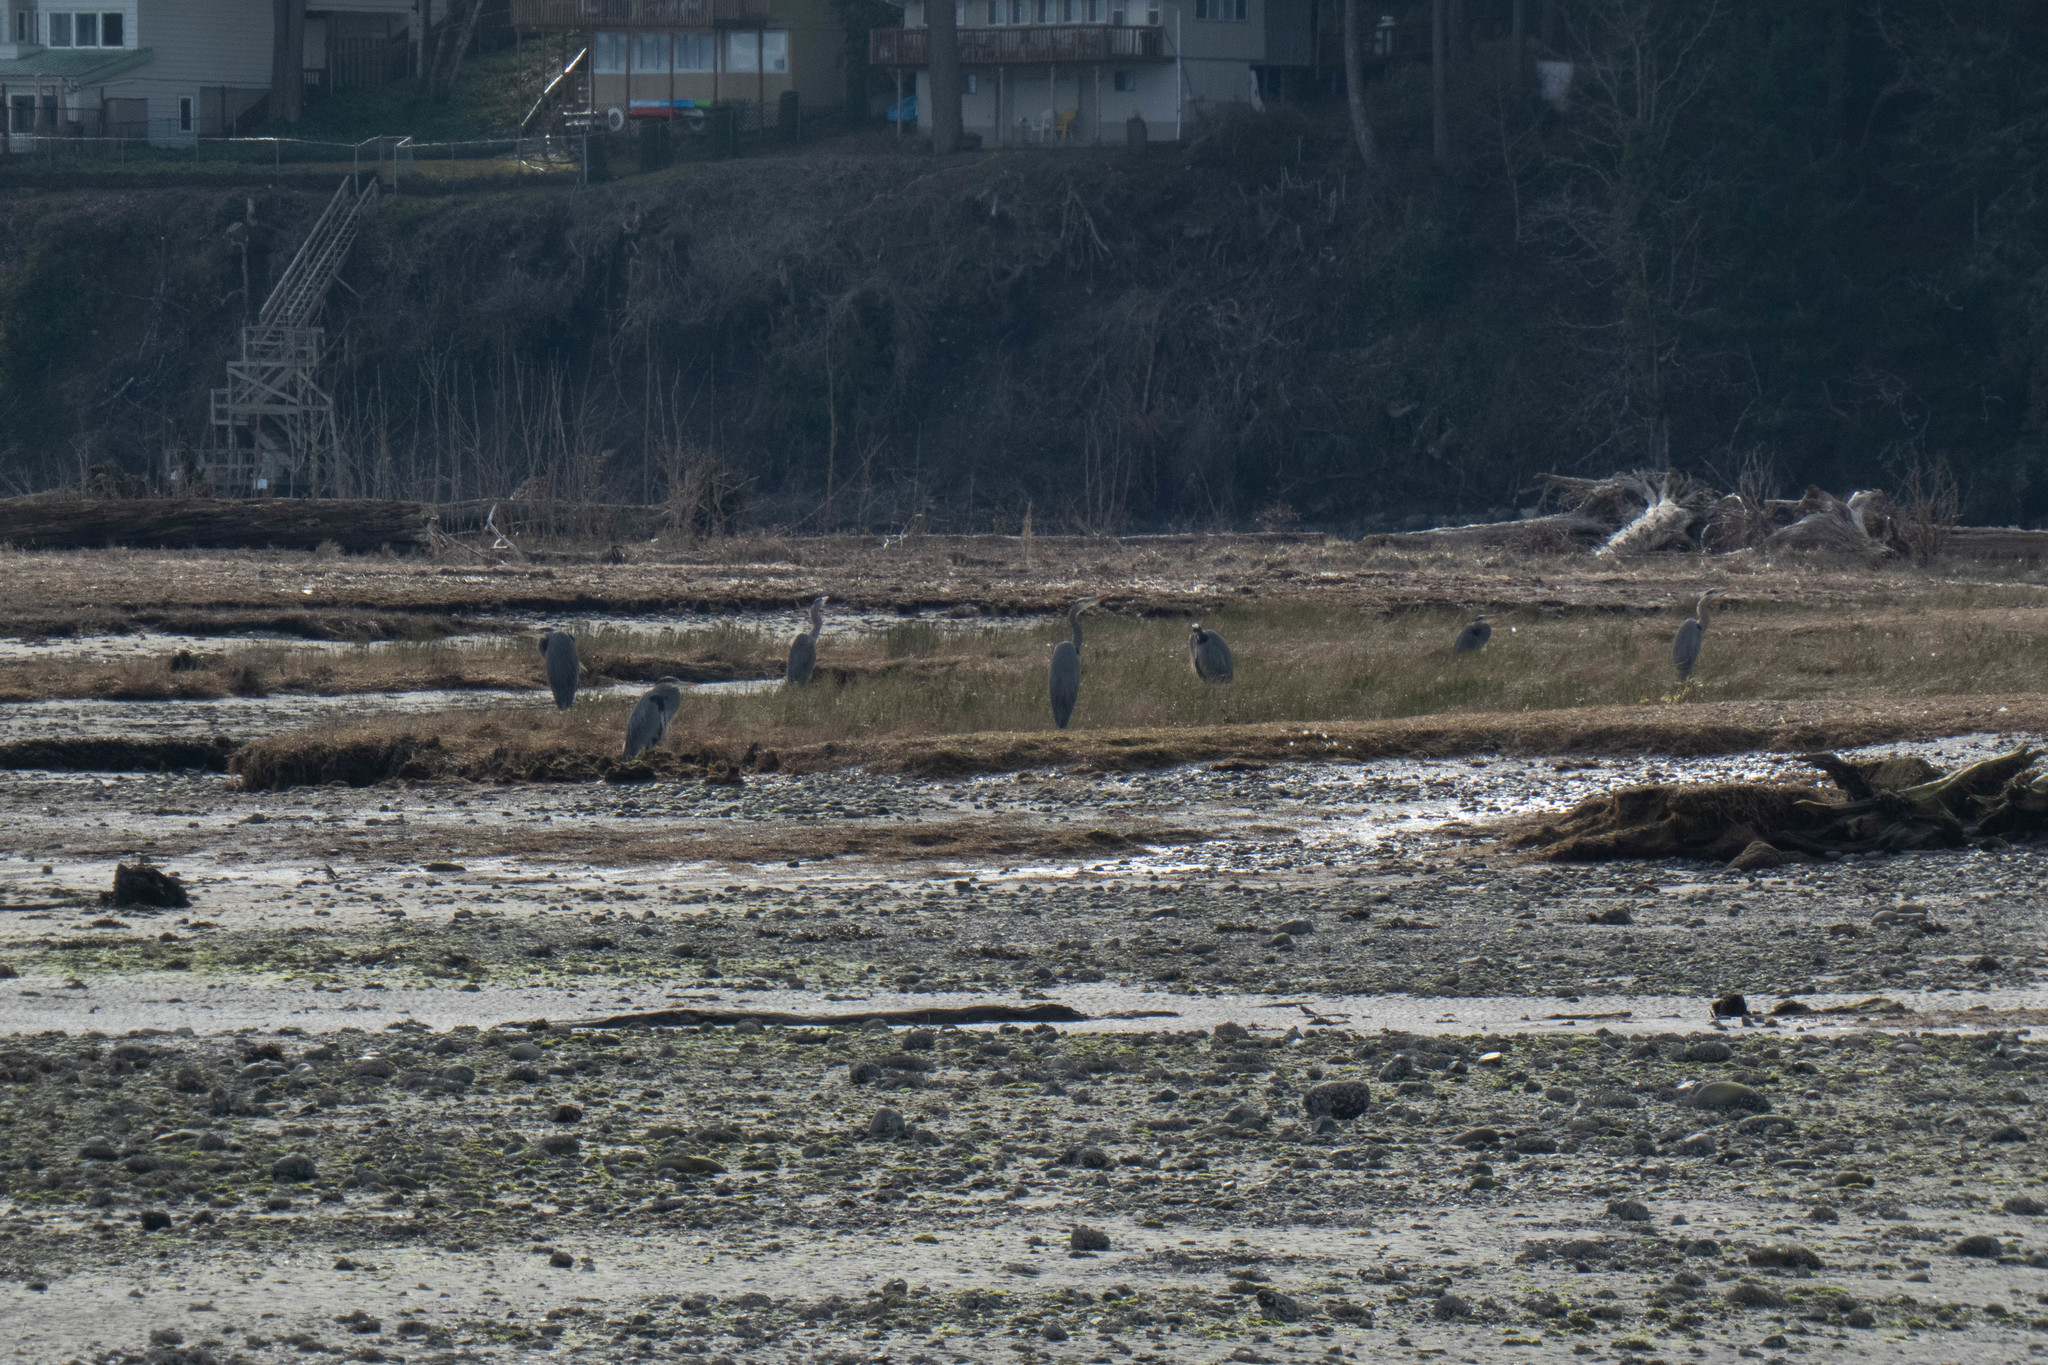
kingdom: Animalia
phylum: Chordata
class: Aves
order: Pelecaniformes
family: Ardeidae
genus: Ardea
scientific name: Ardea herodias
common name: Great blue heron
